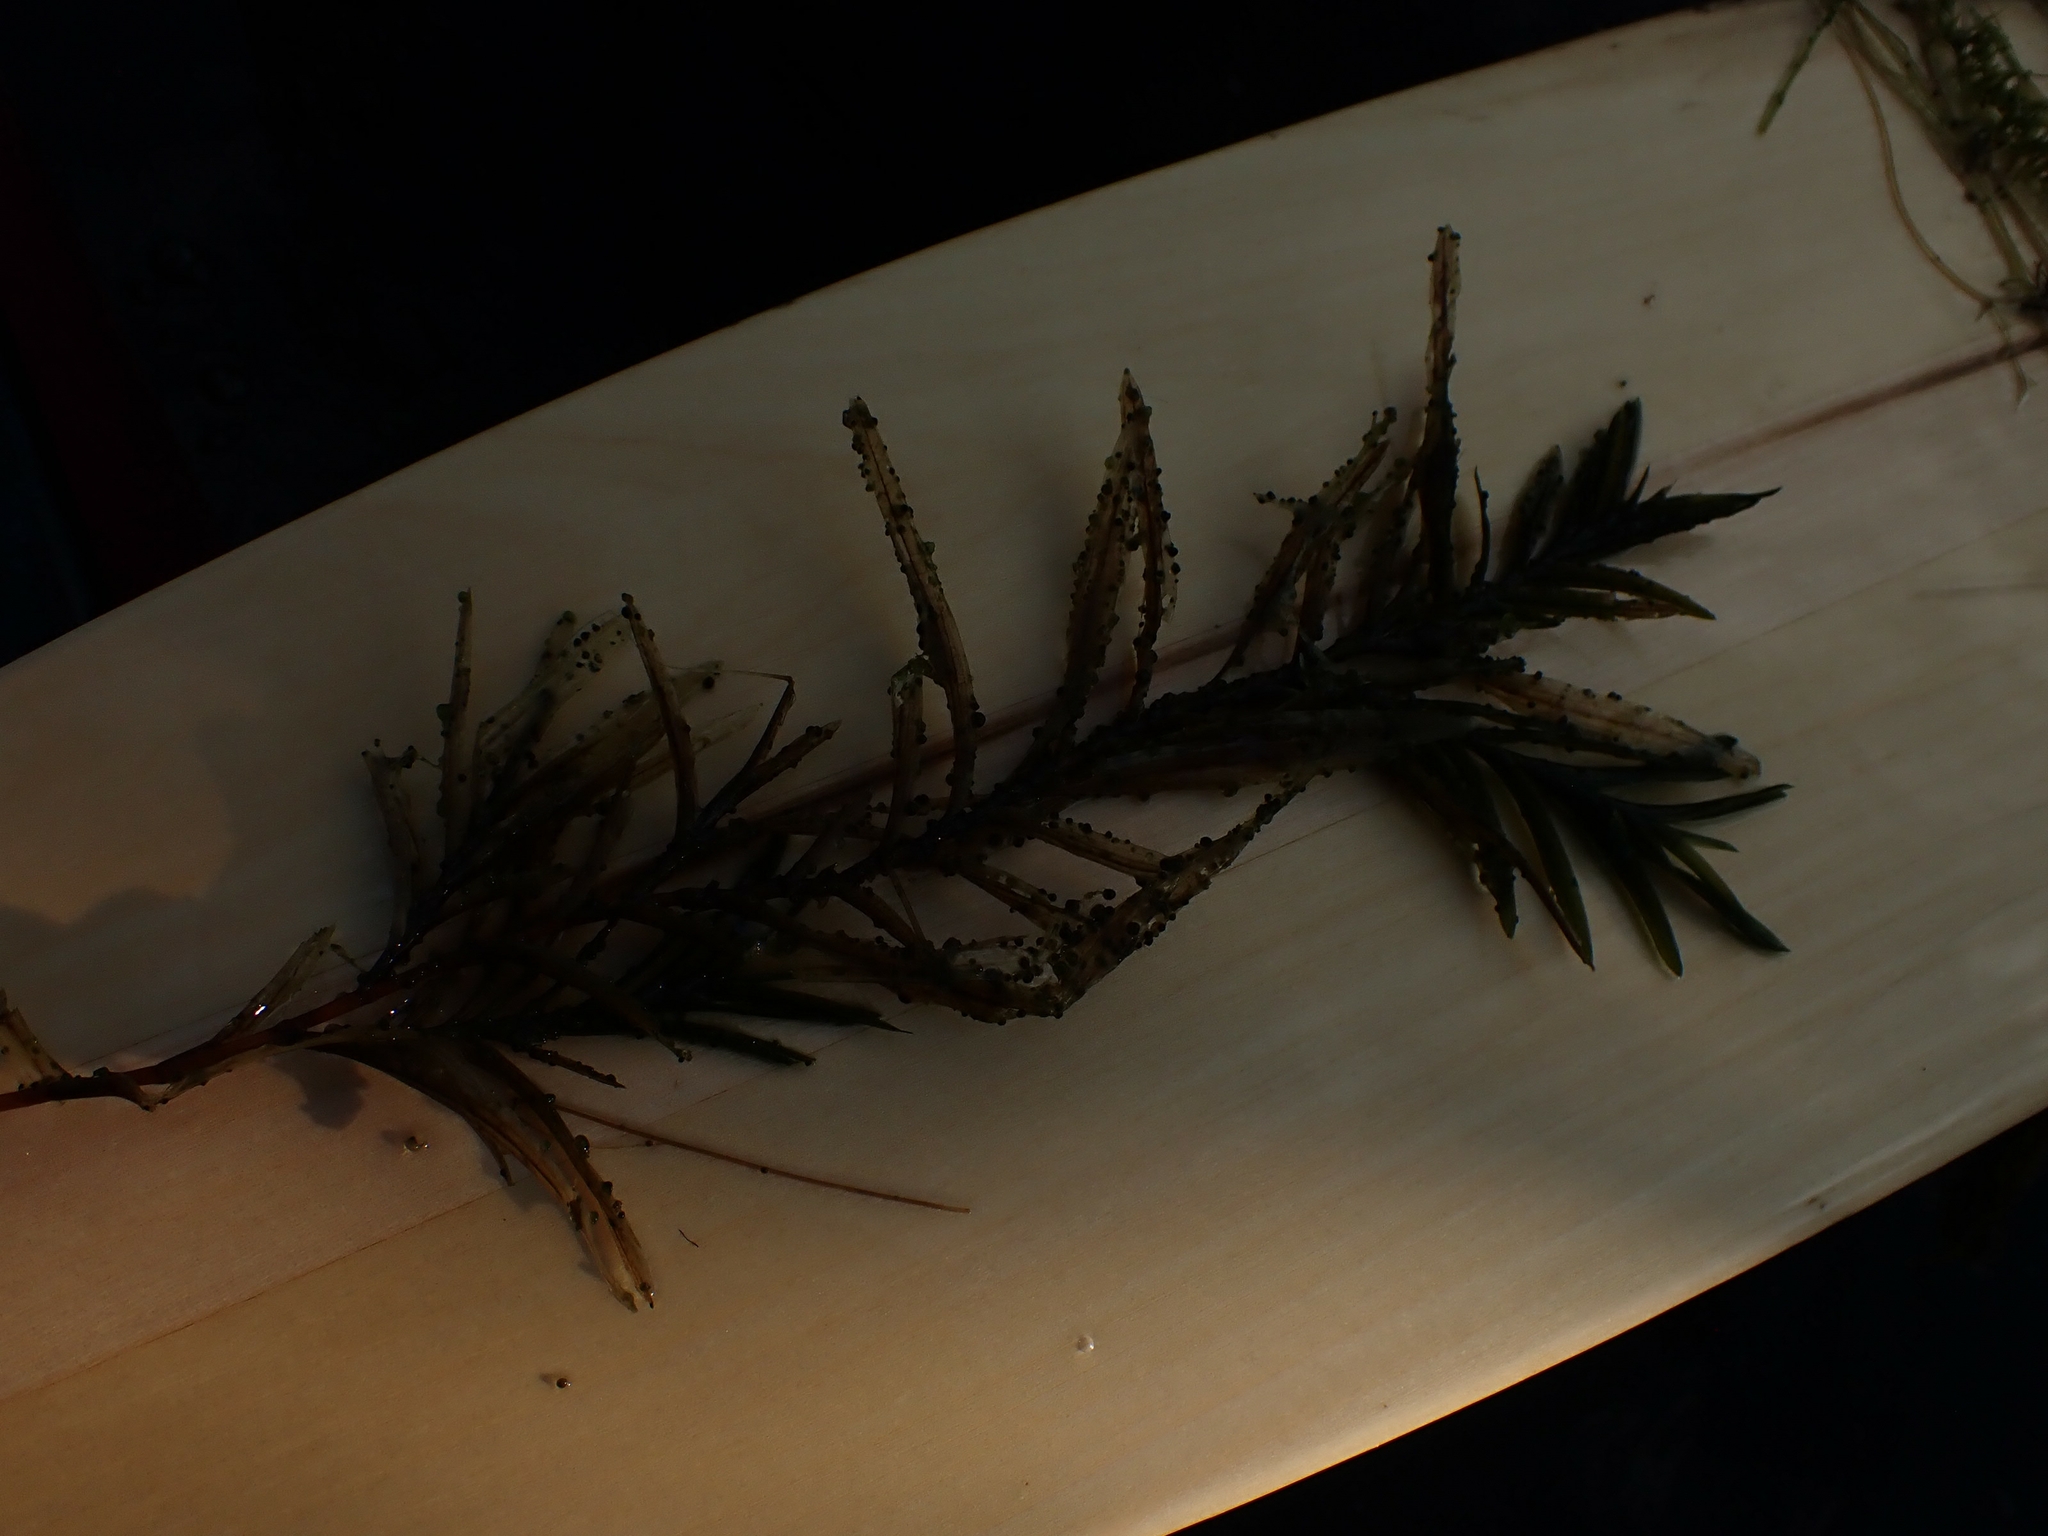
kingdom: Plantae
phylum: Tracheophyta
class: Liliopsida
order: Alismatales
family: Potamogetonaceae
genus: Potamogeton
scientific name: Potamogeton robbinsii
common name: Fern pondweed
